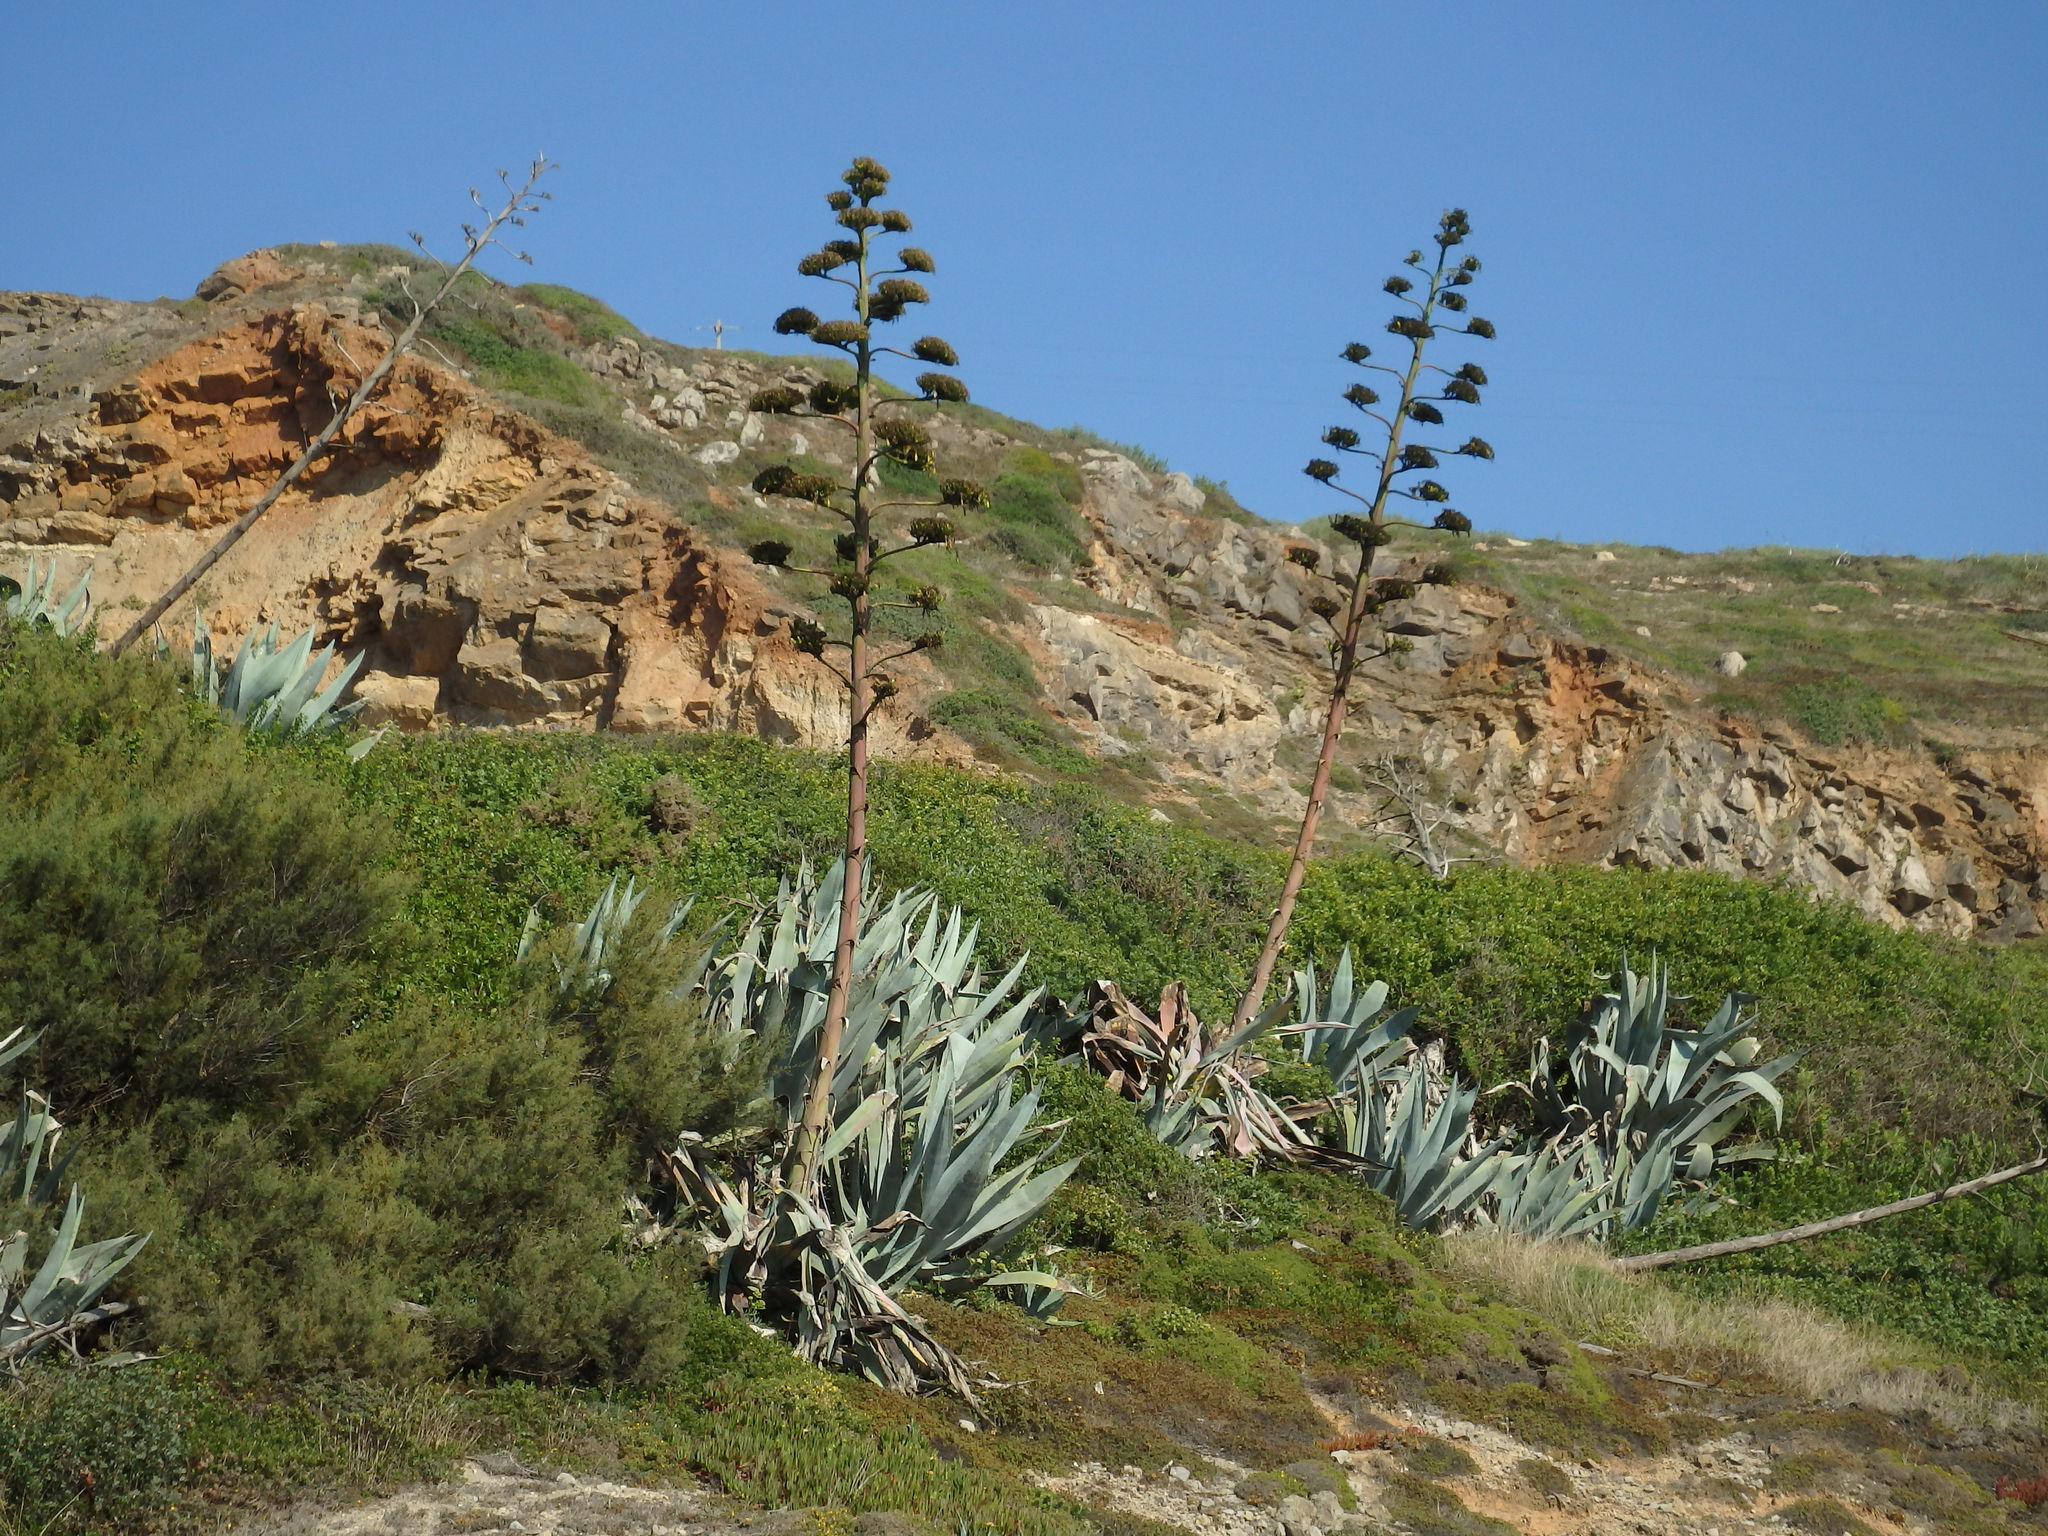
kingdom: Plantae
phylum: Tracheophyta
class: Liliopsida
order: Asparagales
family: Asparagaceae
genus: Agave
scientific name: Agave americana
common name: Centuryplant
